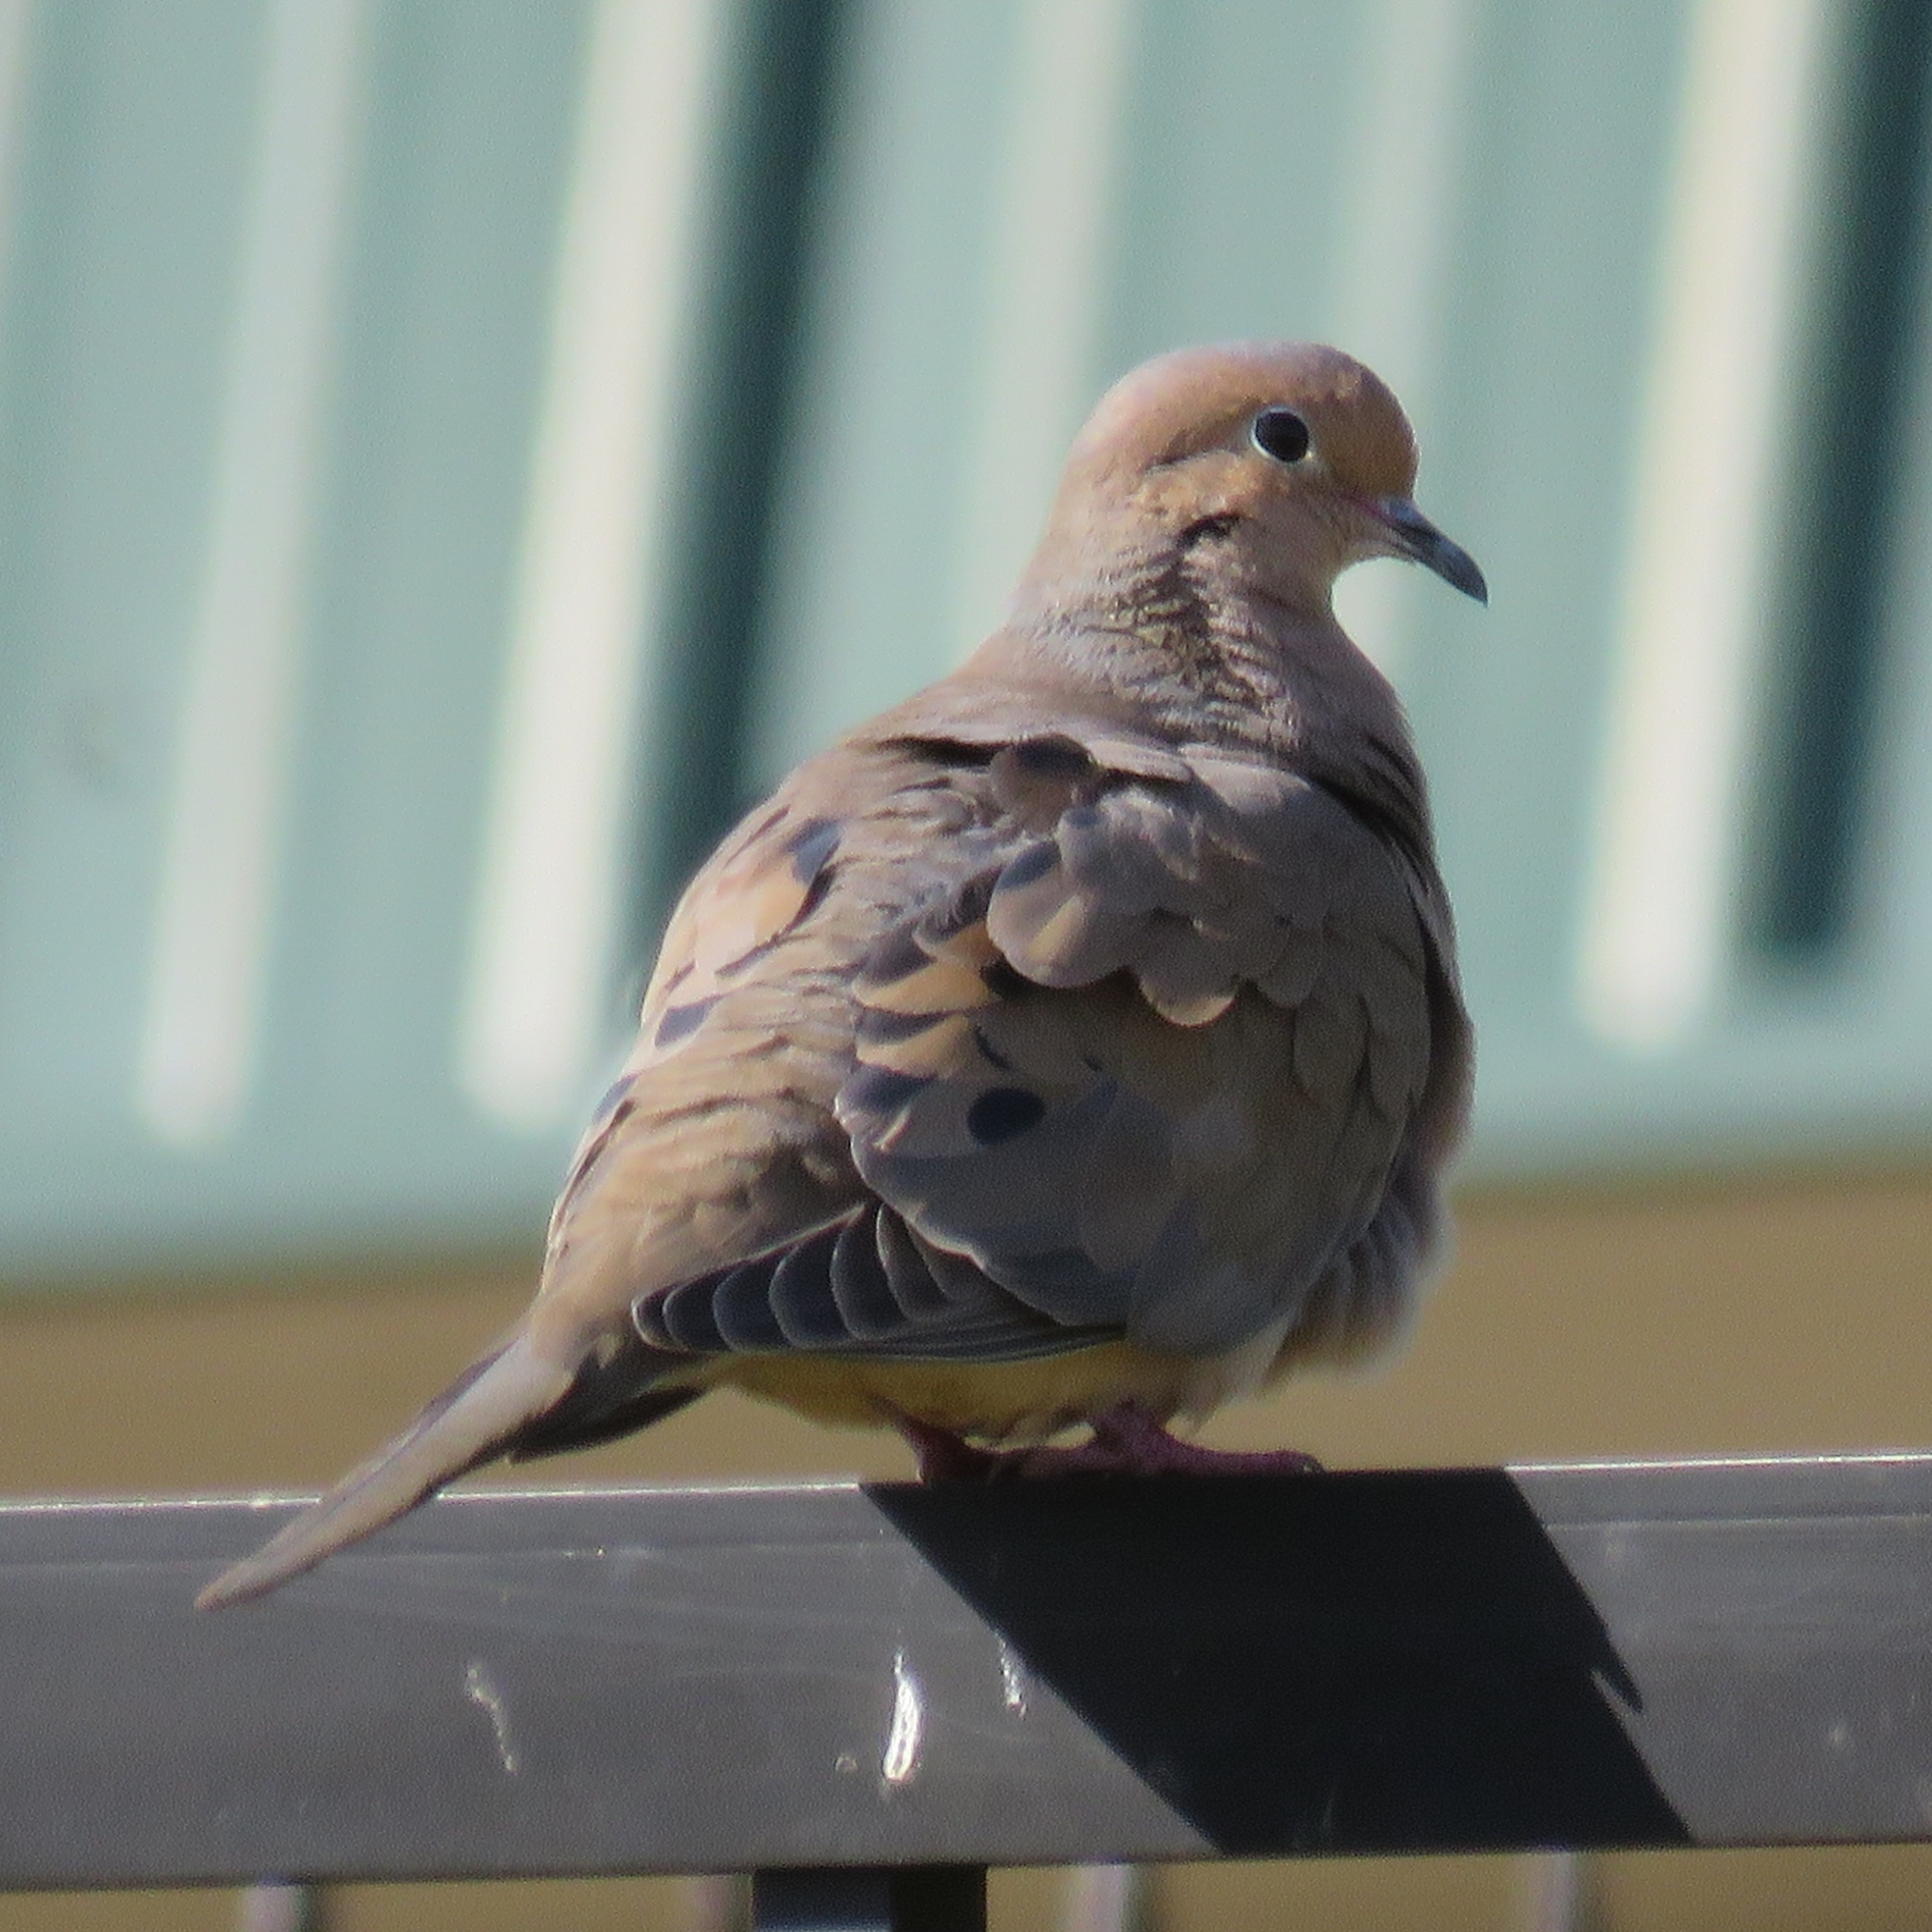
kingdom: Animalia
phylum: Chordata
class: Aves
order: Columbiformes
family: Columbidae
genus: Zenaida
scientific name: Zenaida macroura
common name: Mourning dove
